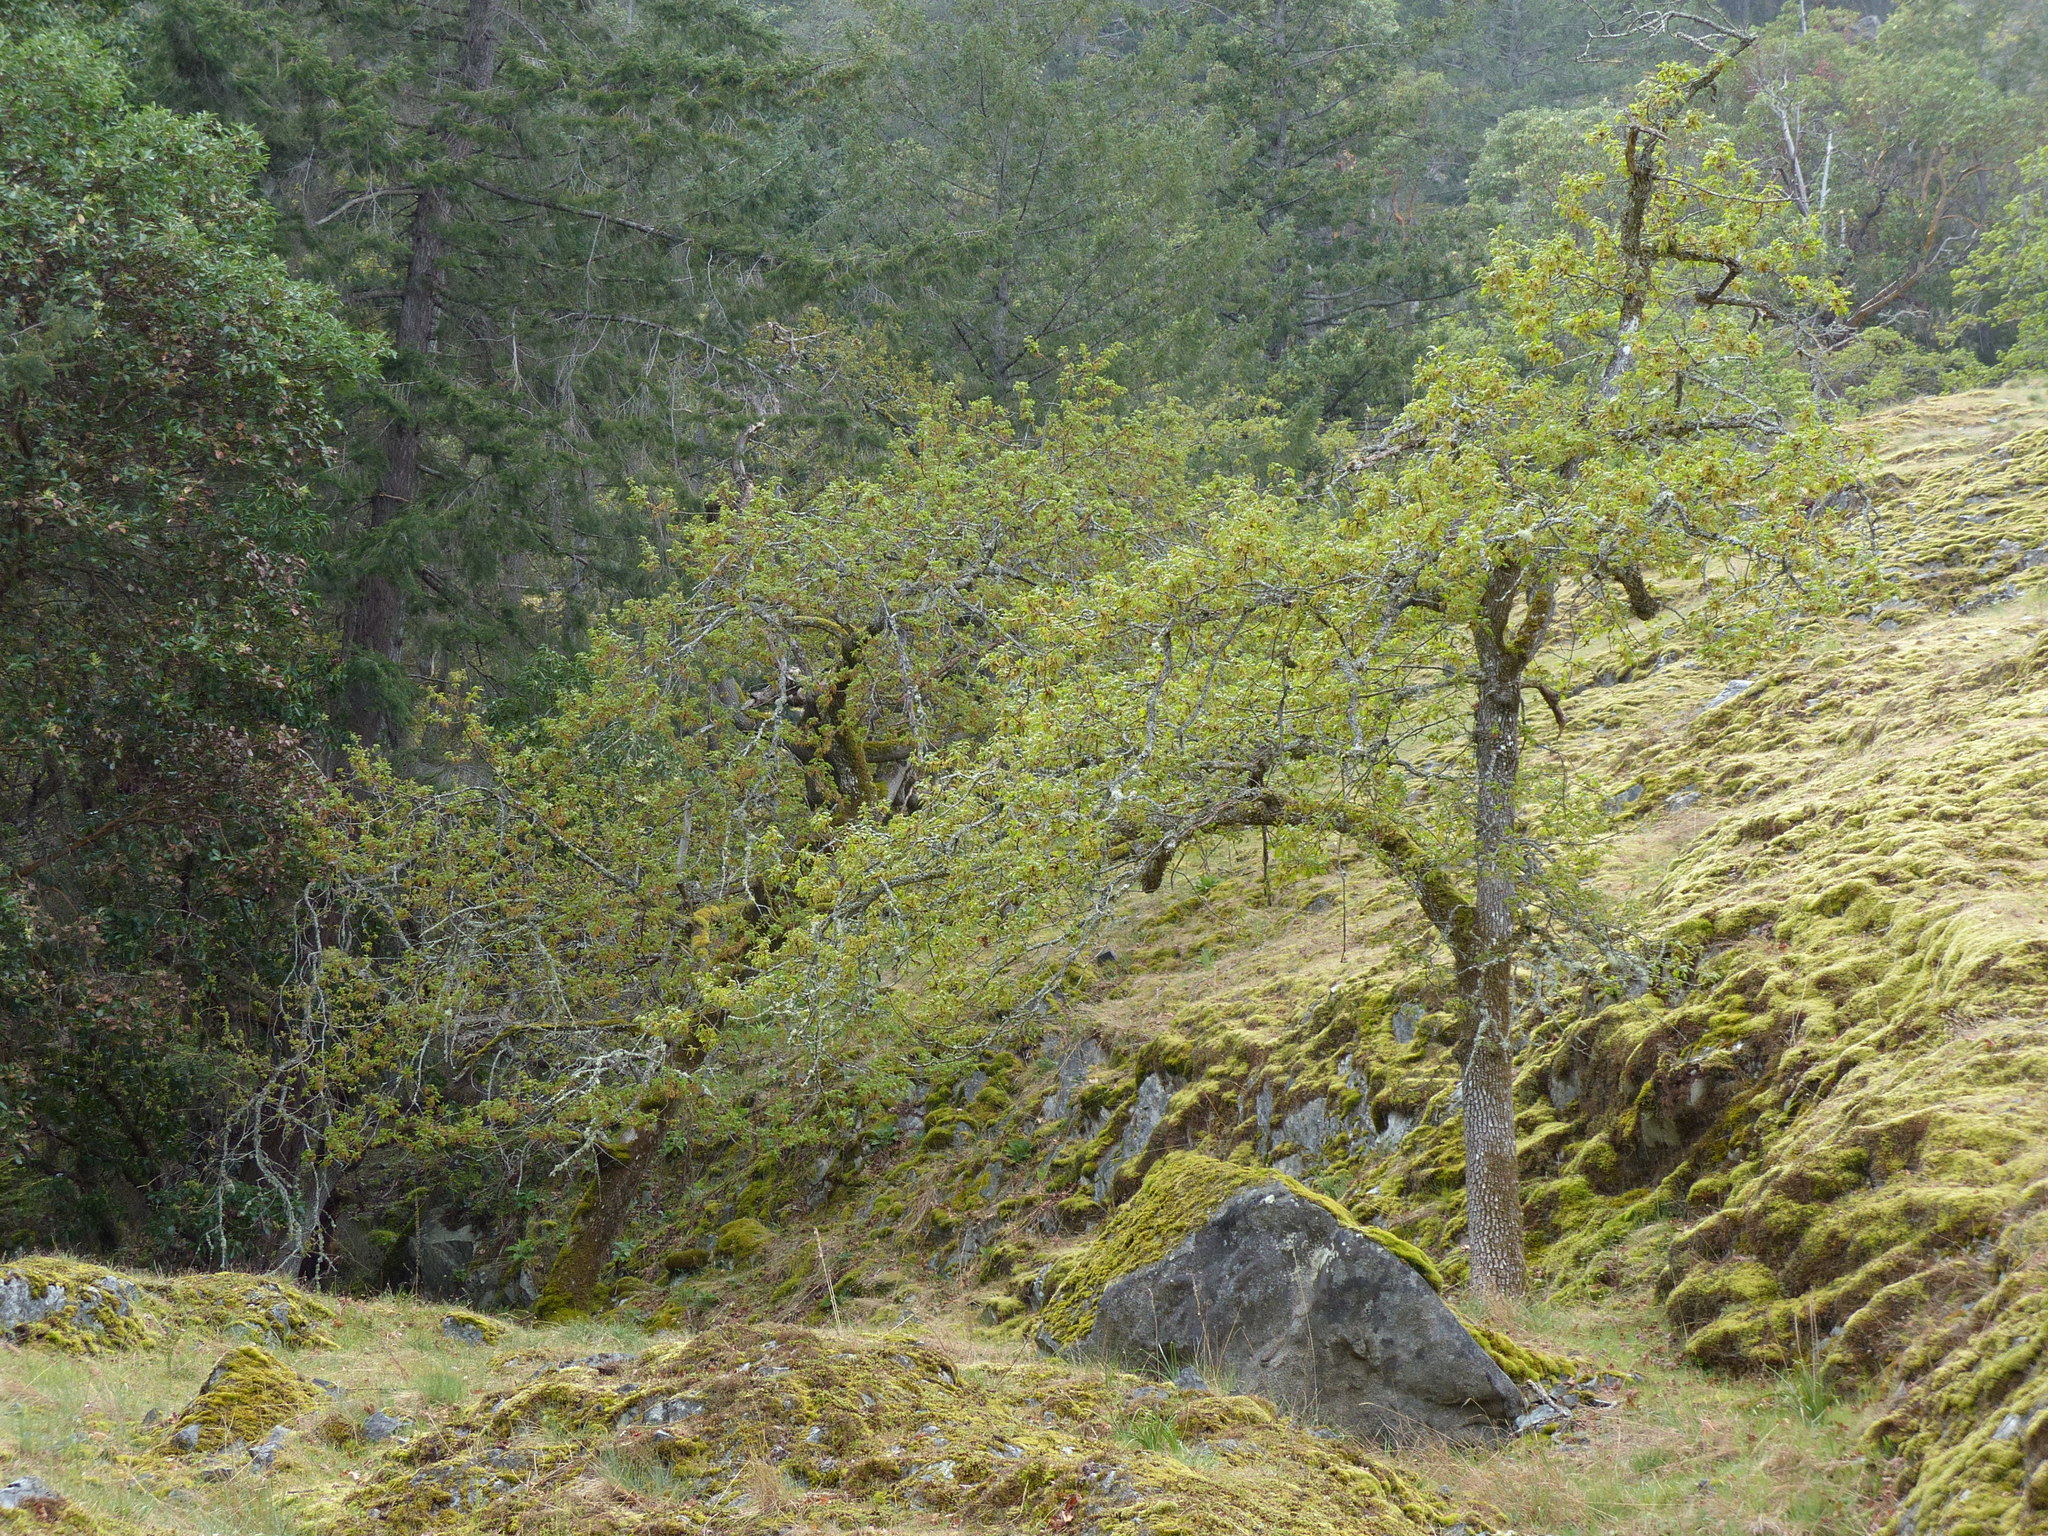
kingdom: Plantae
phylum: Tracheophyta
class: Magnoliopsida
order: Fagales
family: Fagaceae
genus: Quercus
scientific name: Quercus garryana
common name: Garry oak
